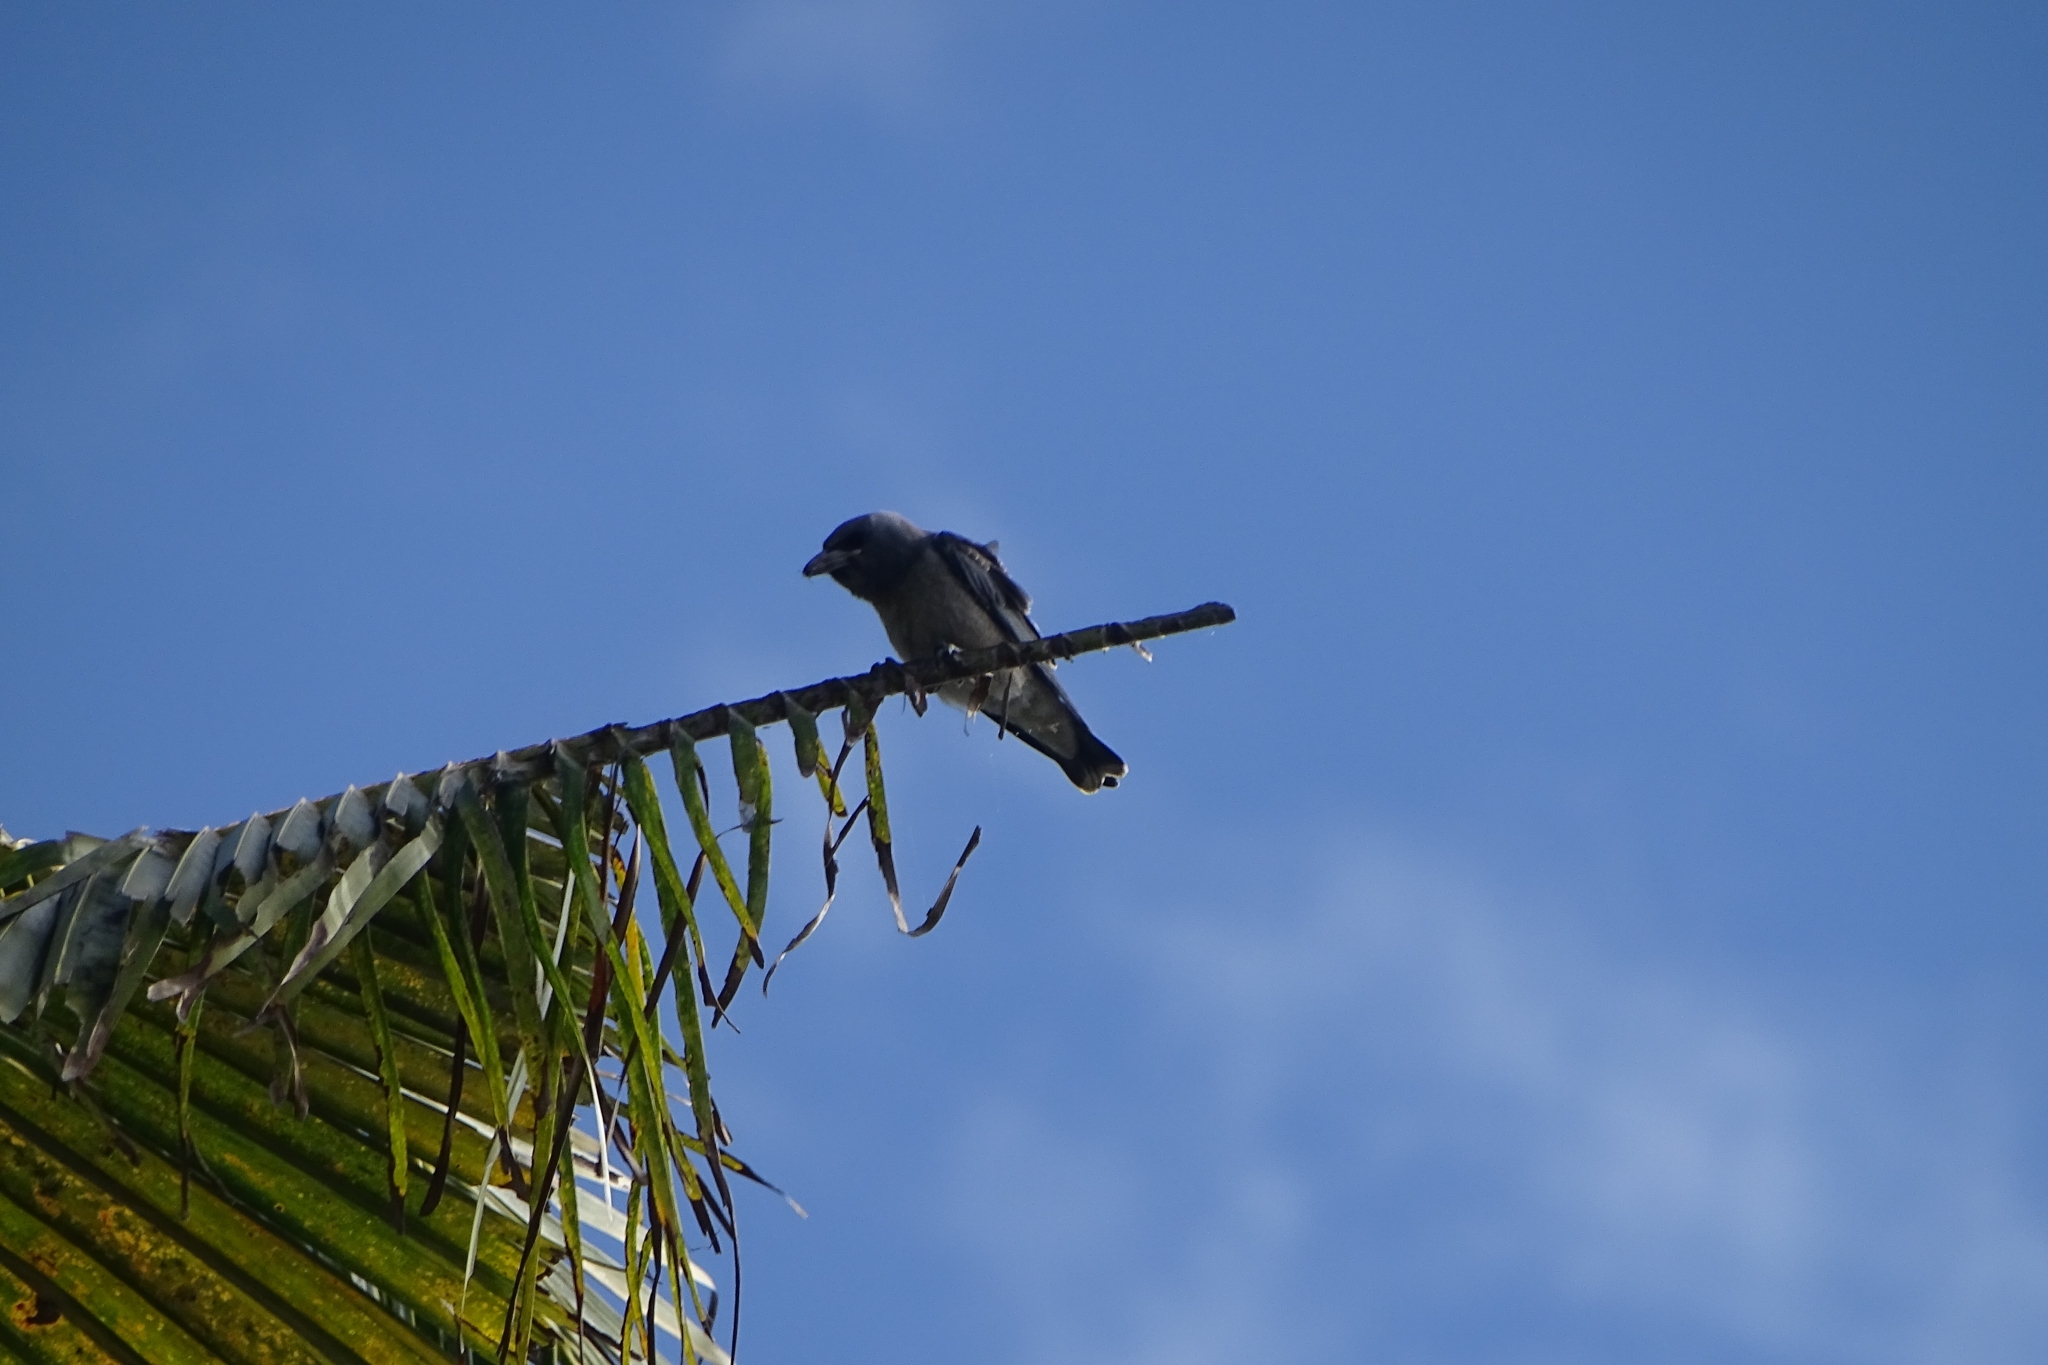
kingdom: Animalia
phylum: Chordata
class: Aves
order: Passeriformes
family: Artamidae
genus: Artamus
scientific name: Artamus fuscus
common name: Ashy woodswallow
